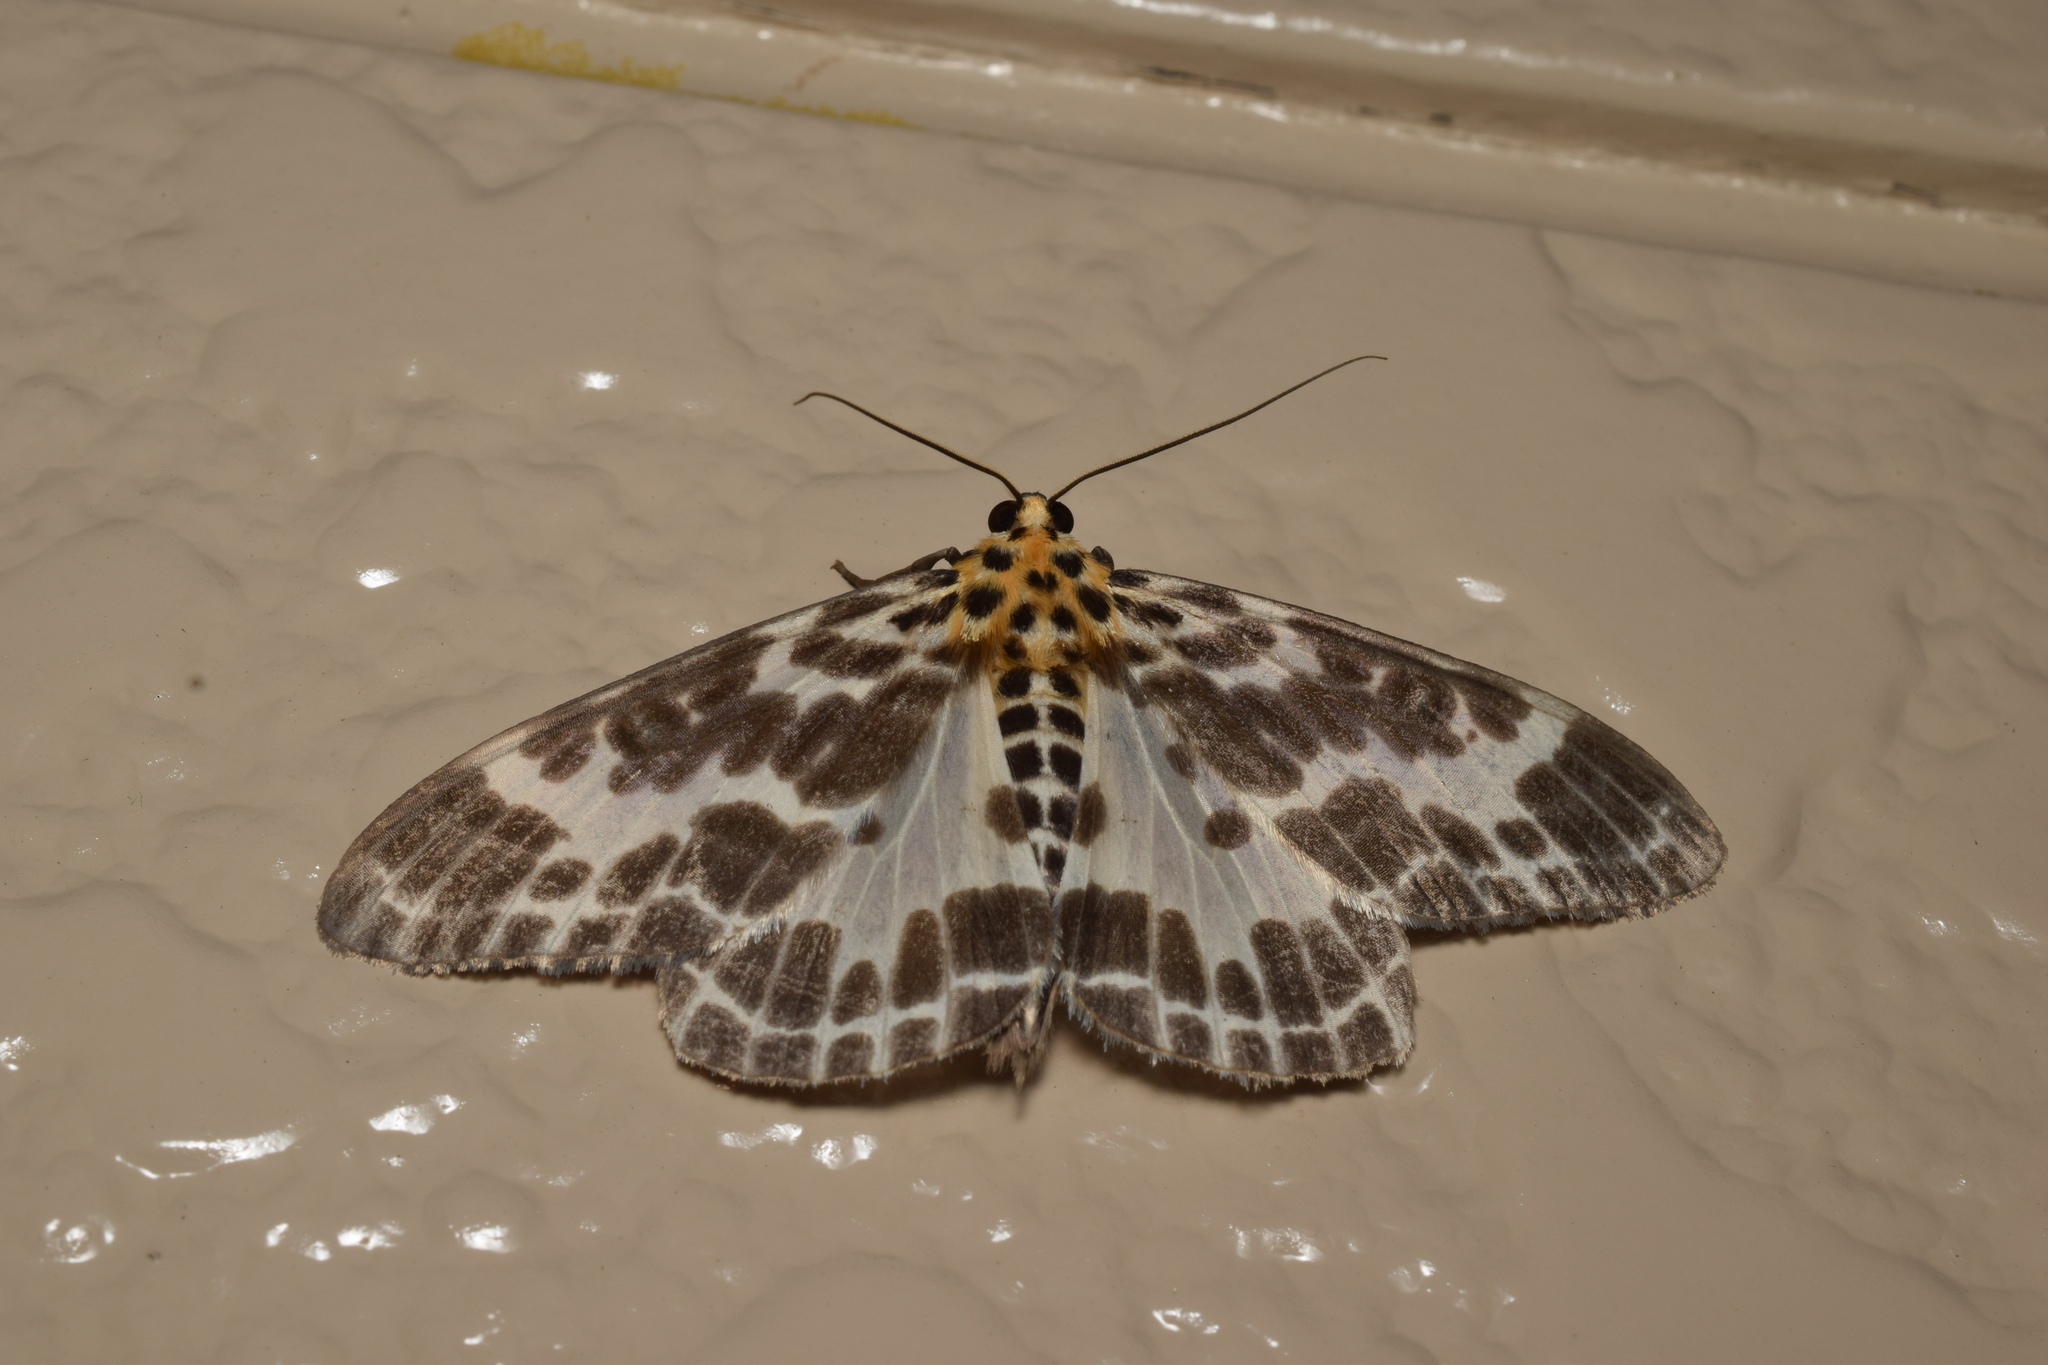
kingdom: Animalia
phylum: Arthropoda
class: Insecta
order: Lepidoptera
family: Geometridae
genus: Pogonopygia
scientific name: Pogonopygia nigralbata
